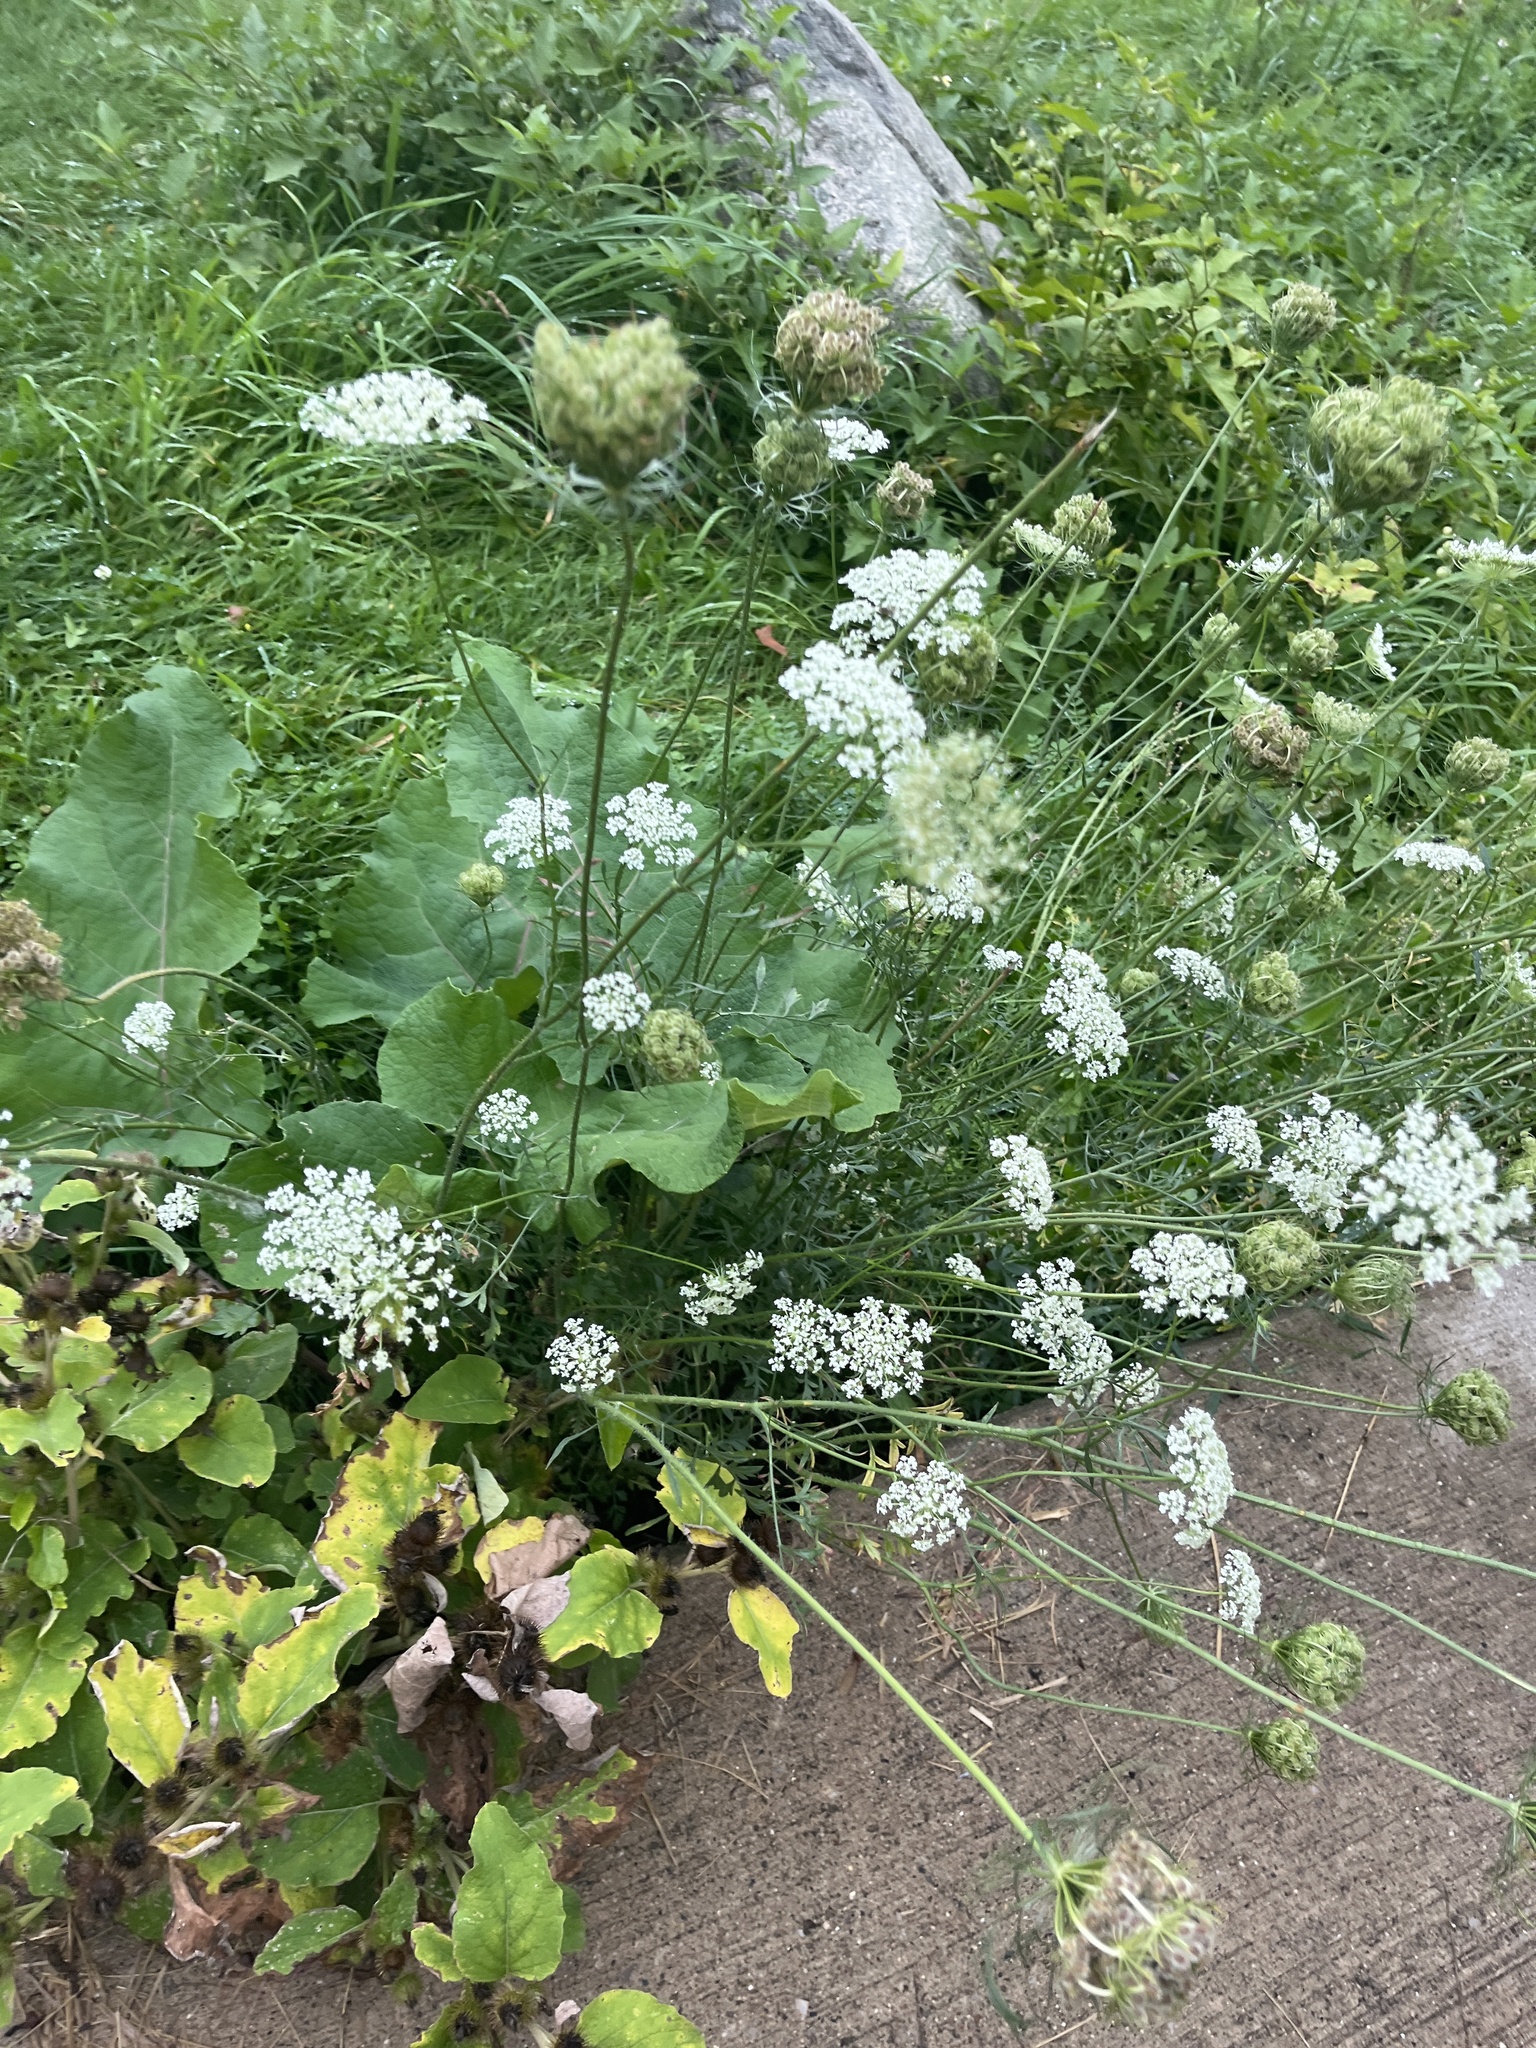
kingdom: Plantae
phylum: Tracheophyta
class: Magnoliopsida
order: Apiales
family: Apiaceae
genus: Daucus
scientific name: Daucus carota
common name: Wild carrot
